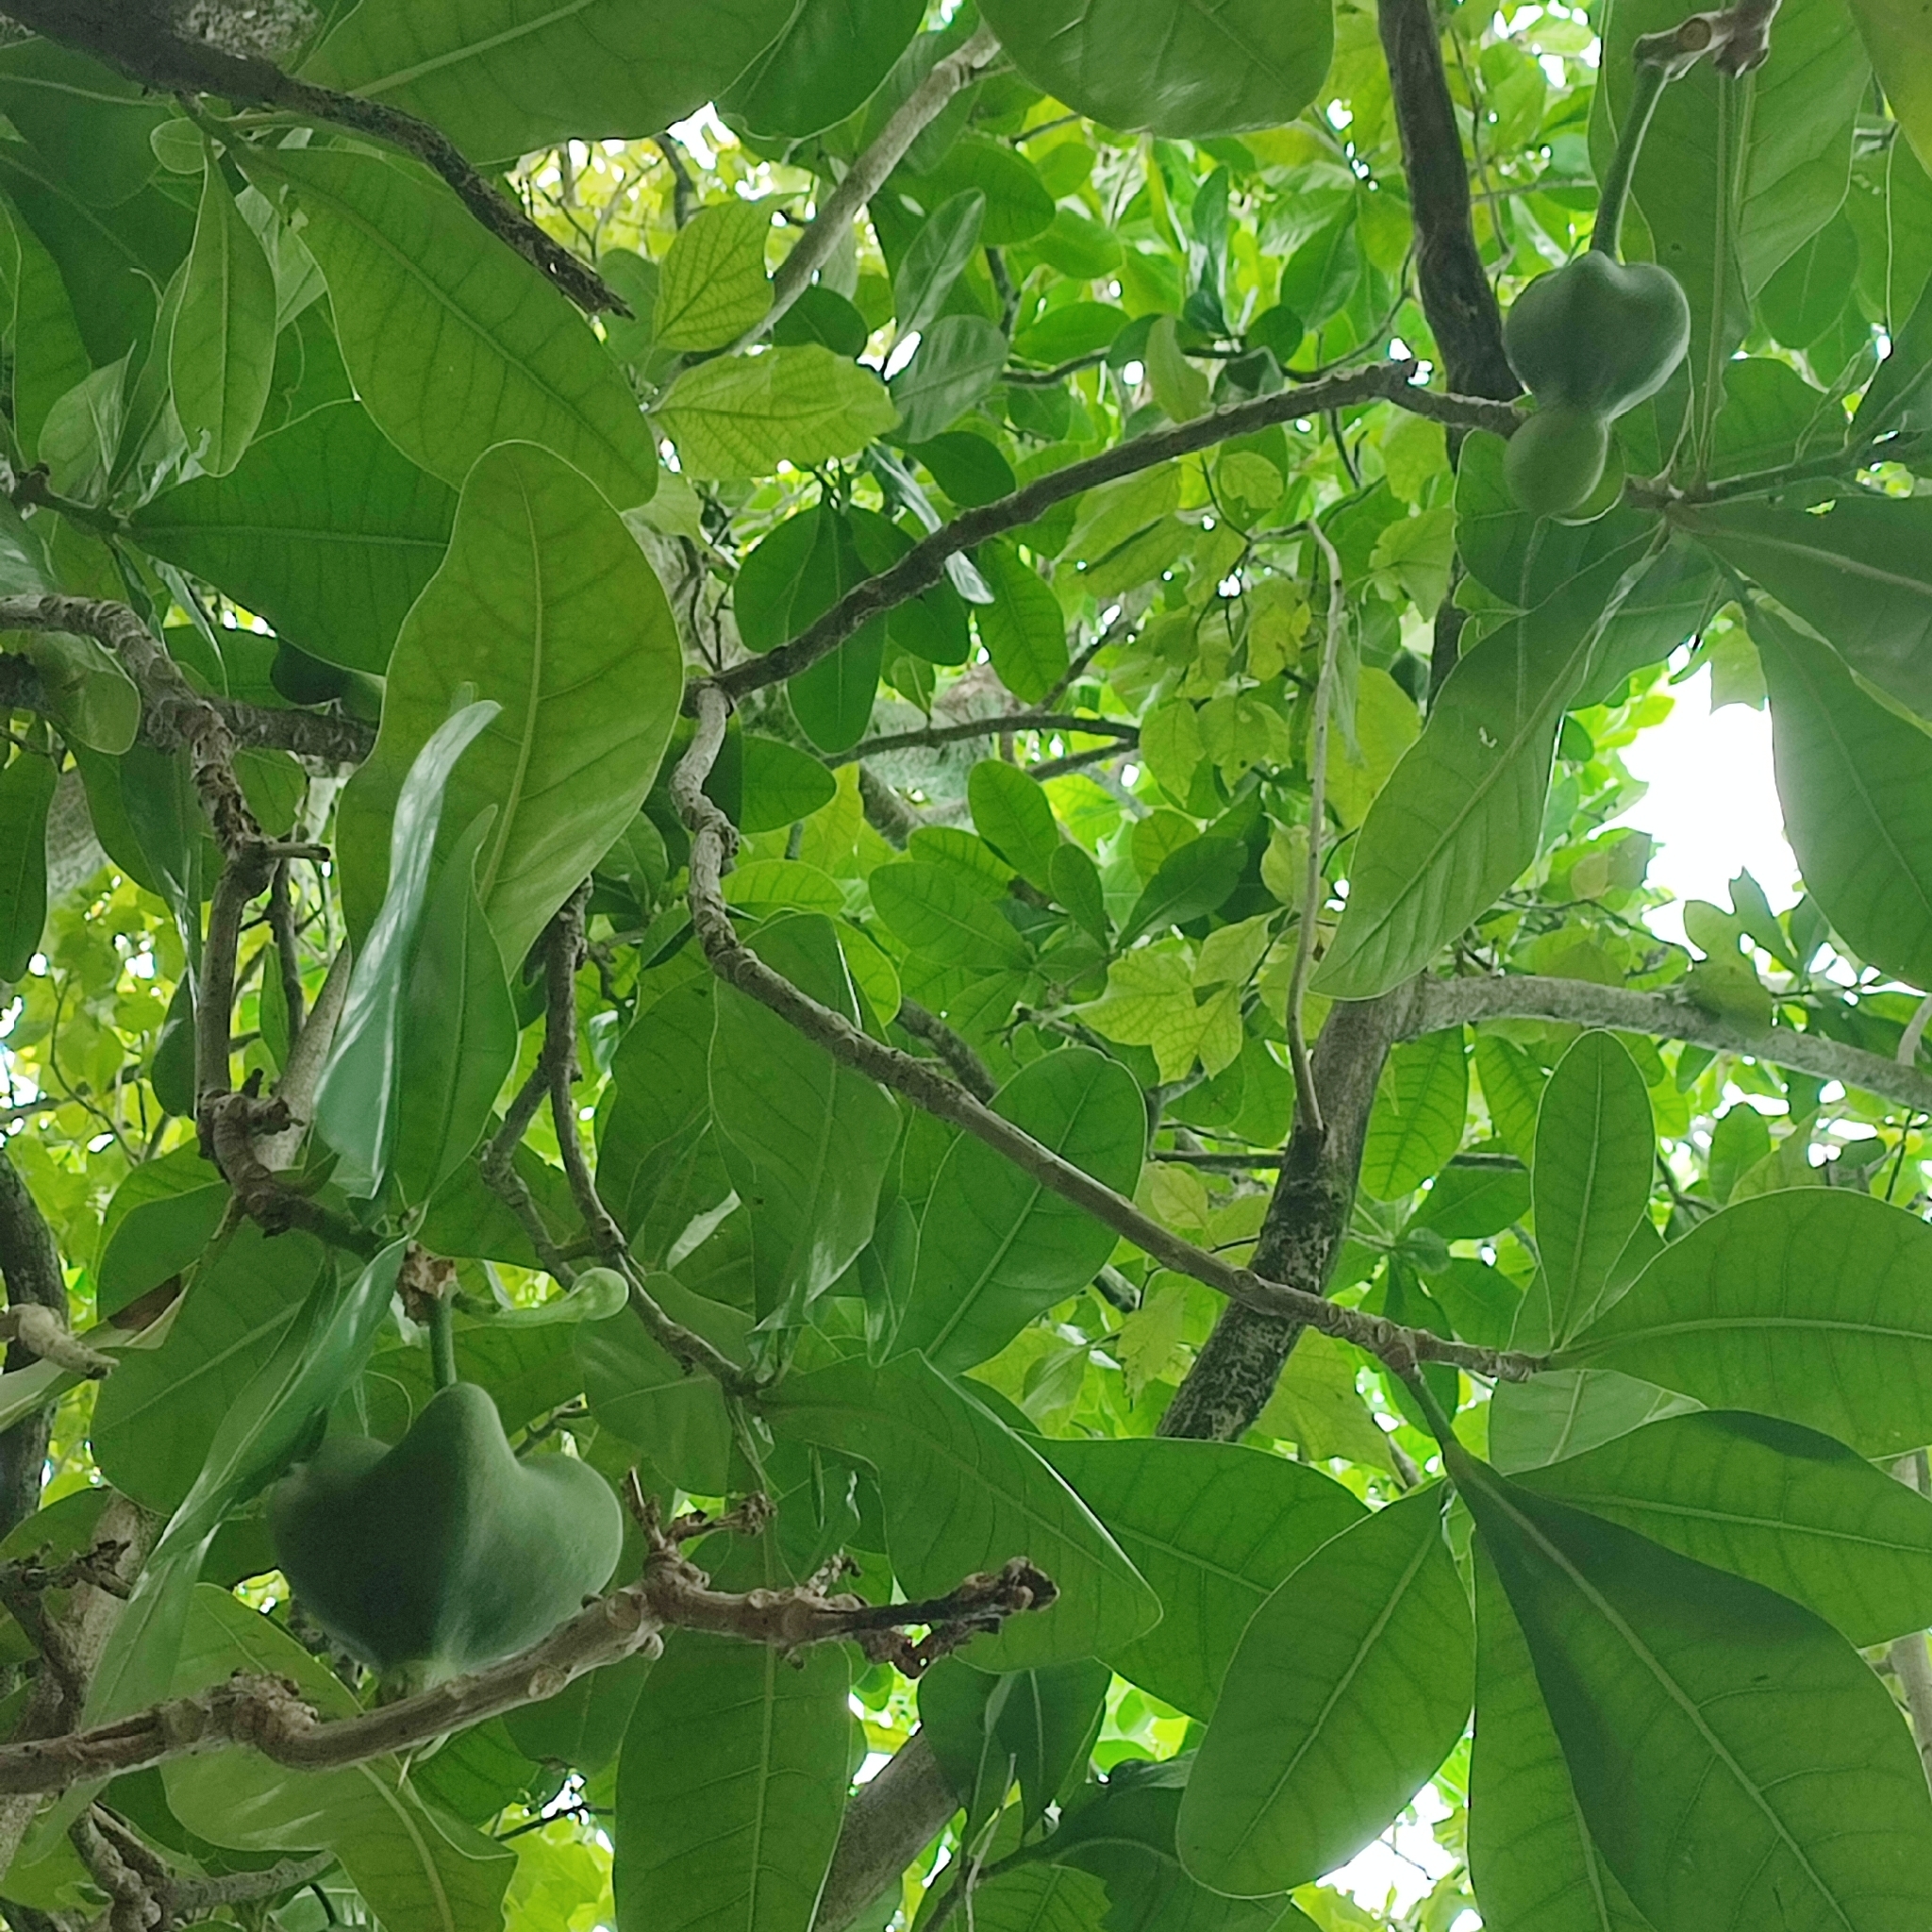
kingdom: Plantae
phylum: Tracheophyta
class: Magnoliopsida
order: Ericales
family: Lecythidaceae
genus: Barringtonia
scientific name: Barringtonia asiatica
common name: Mango-pine
